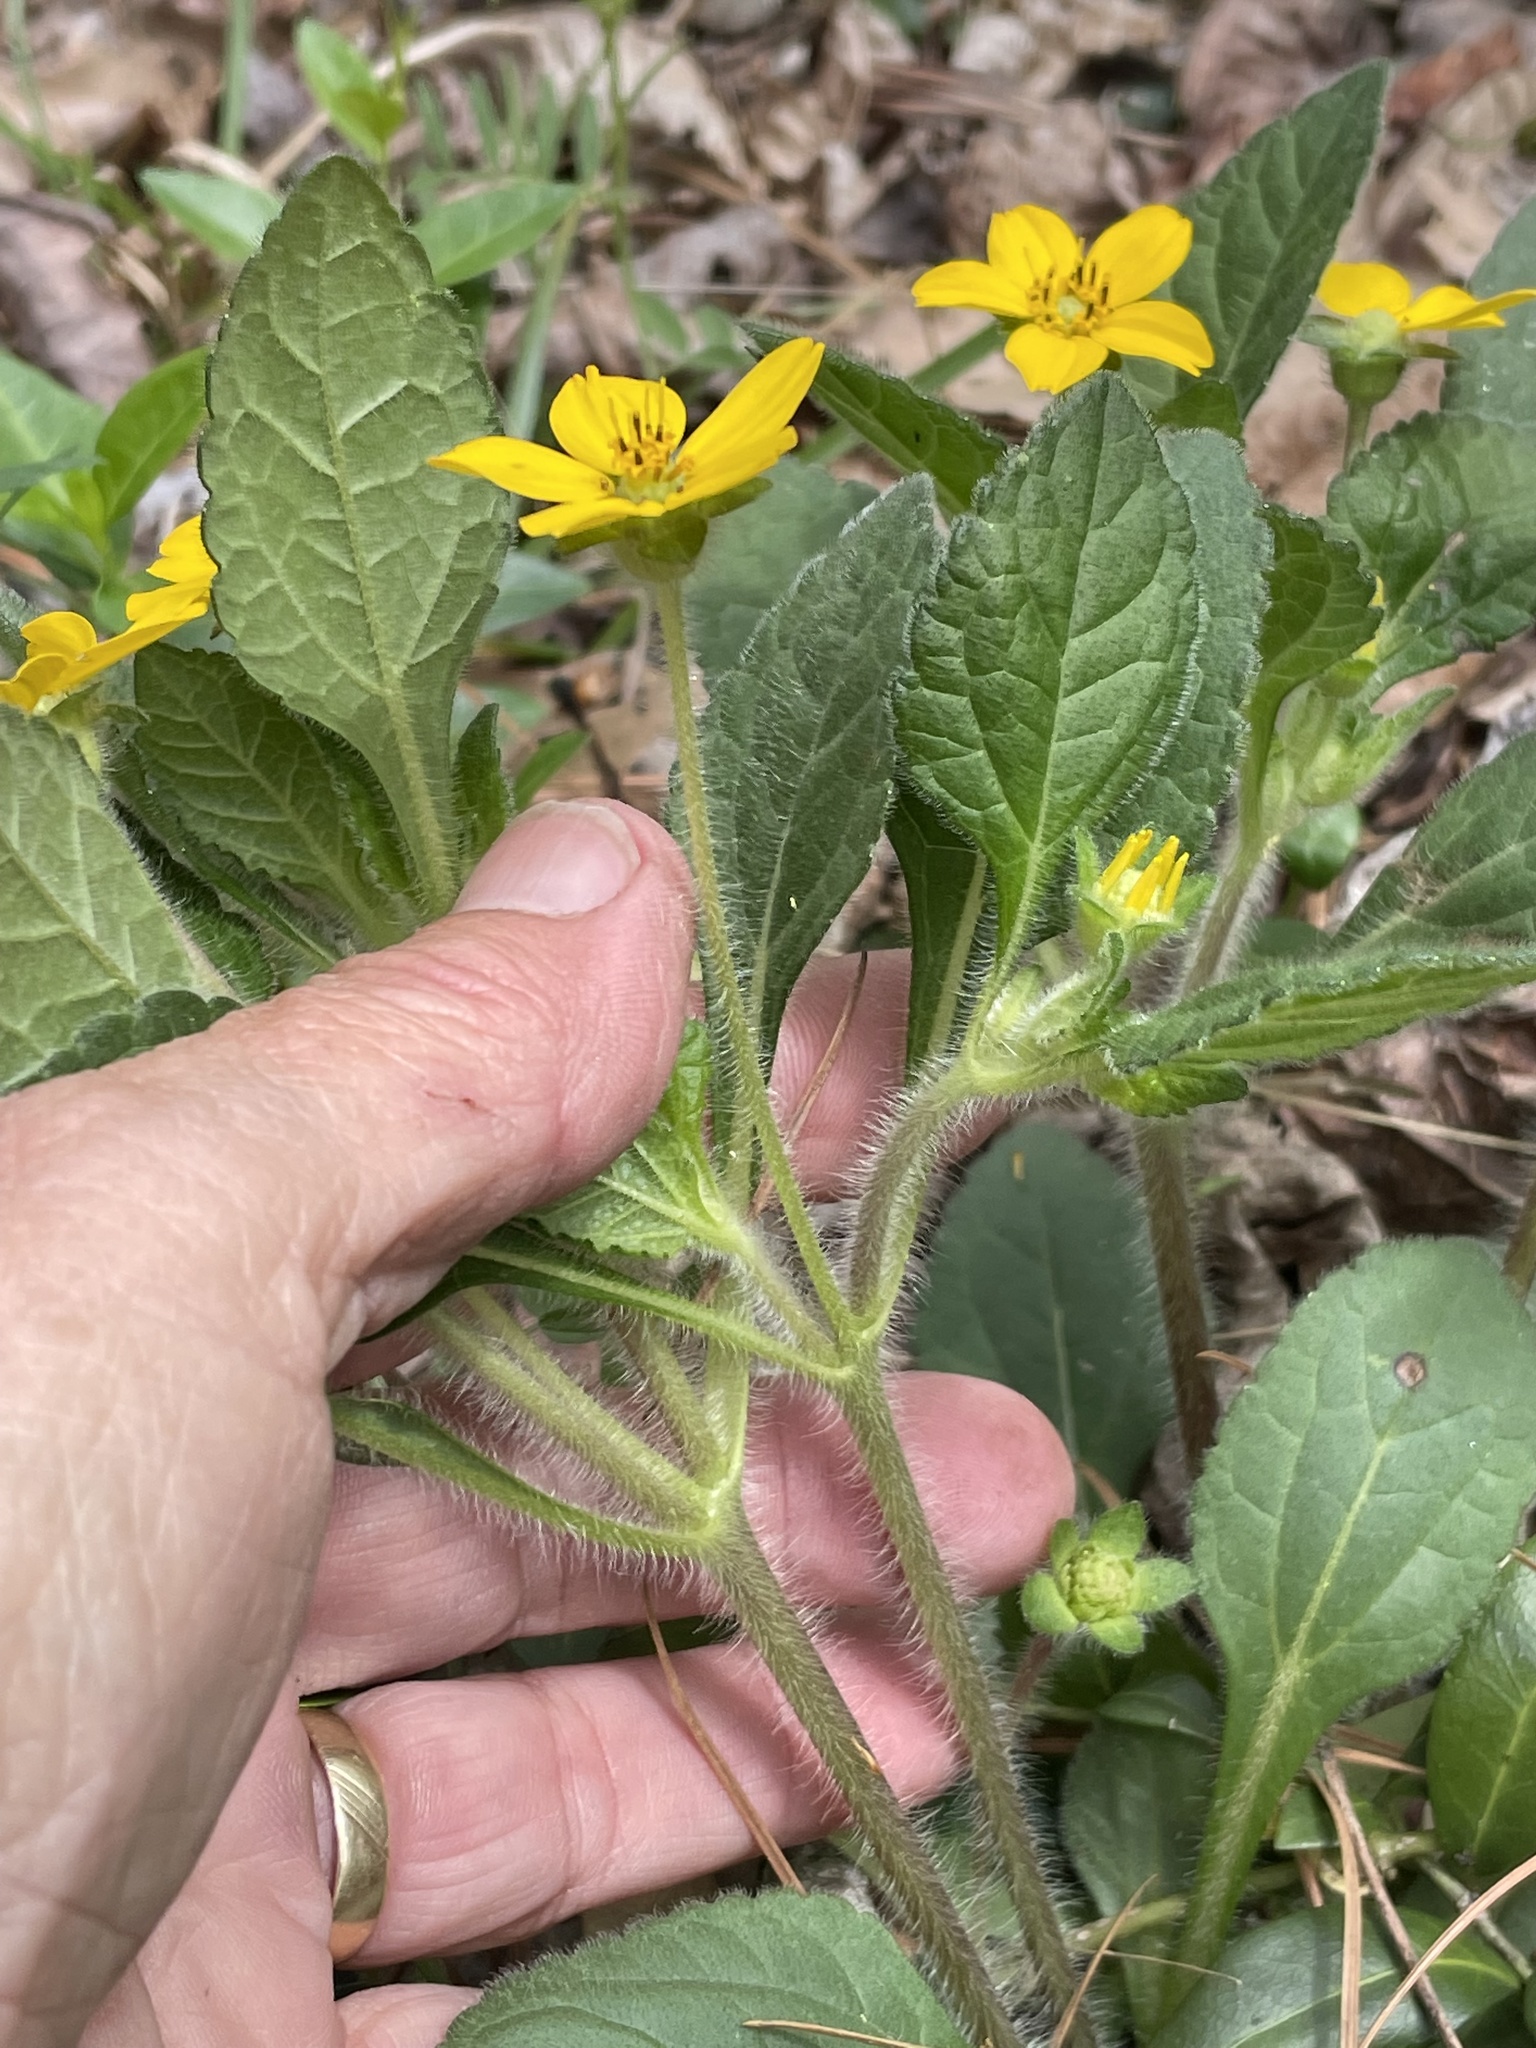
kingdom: Plantae
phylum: Tracheophyta
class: Magnoliopsida
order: Asterales
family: Asteraceae
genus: Chrysogonum
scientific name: Chrysogonum virginianum
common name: Golden-knee
